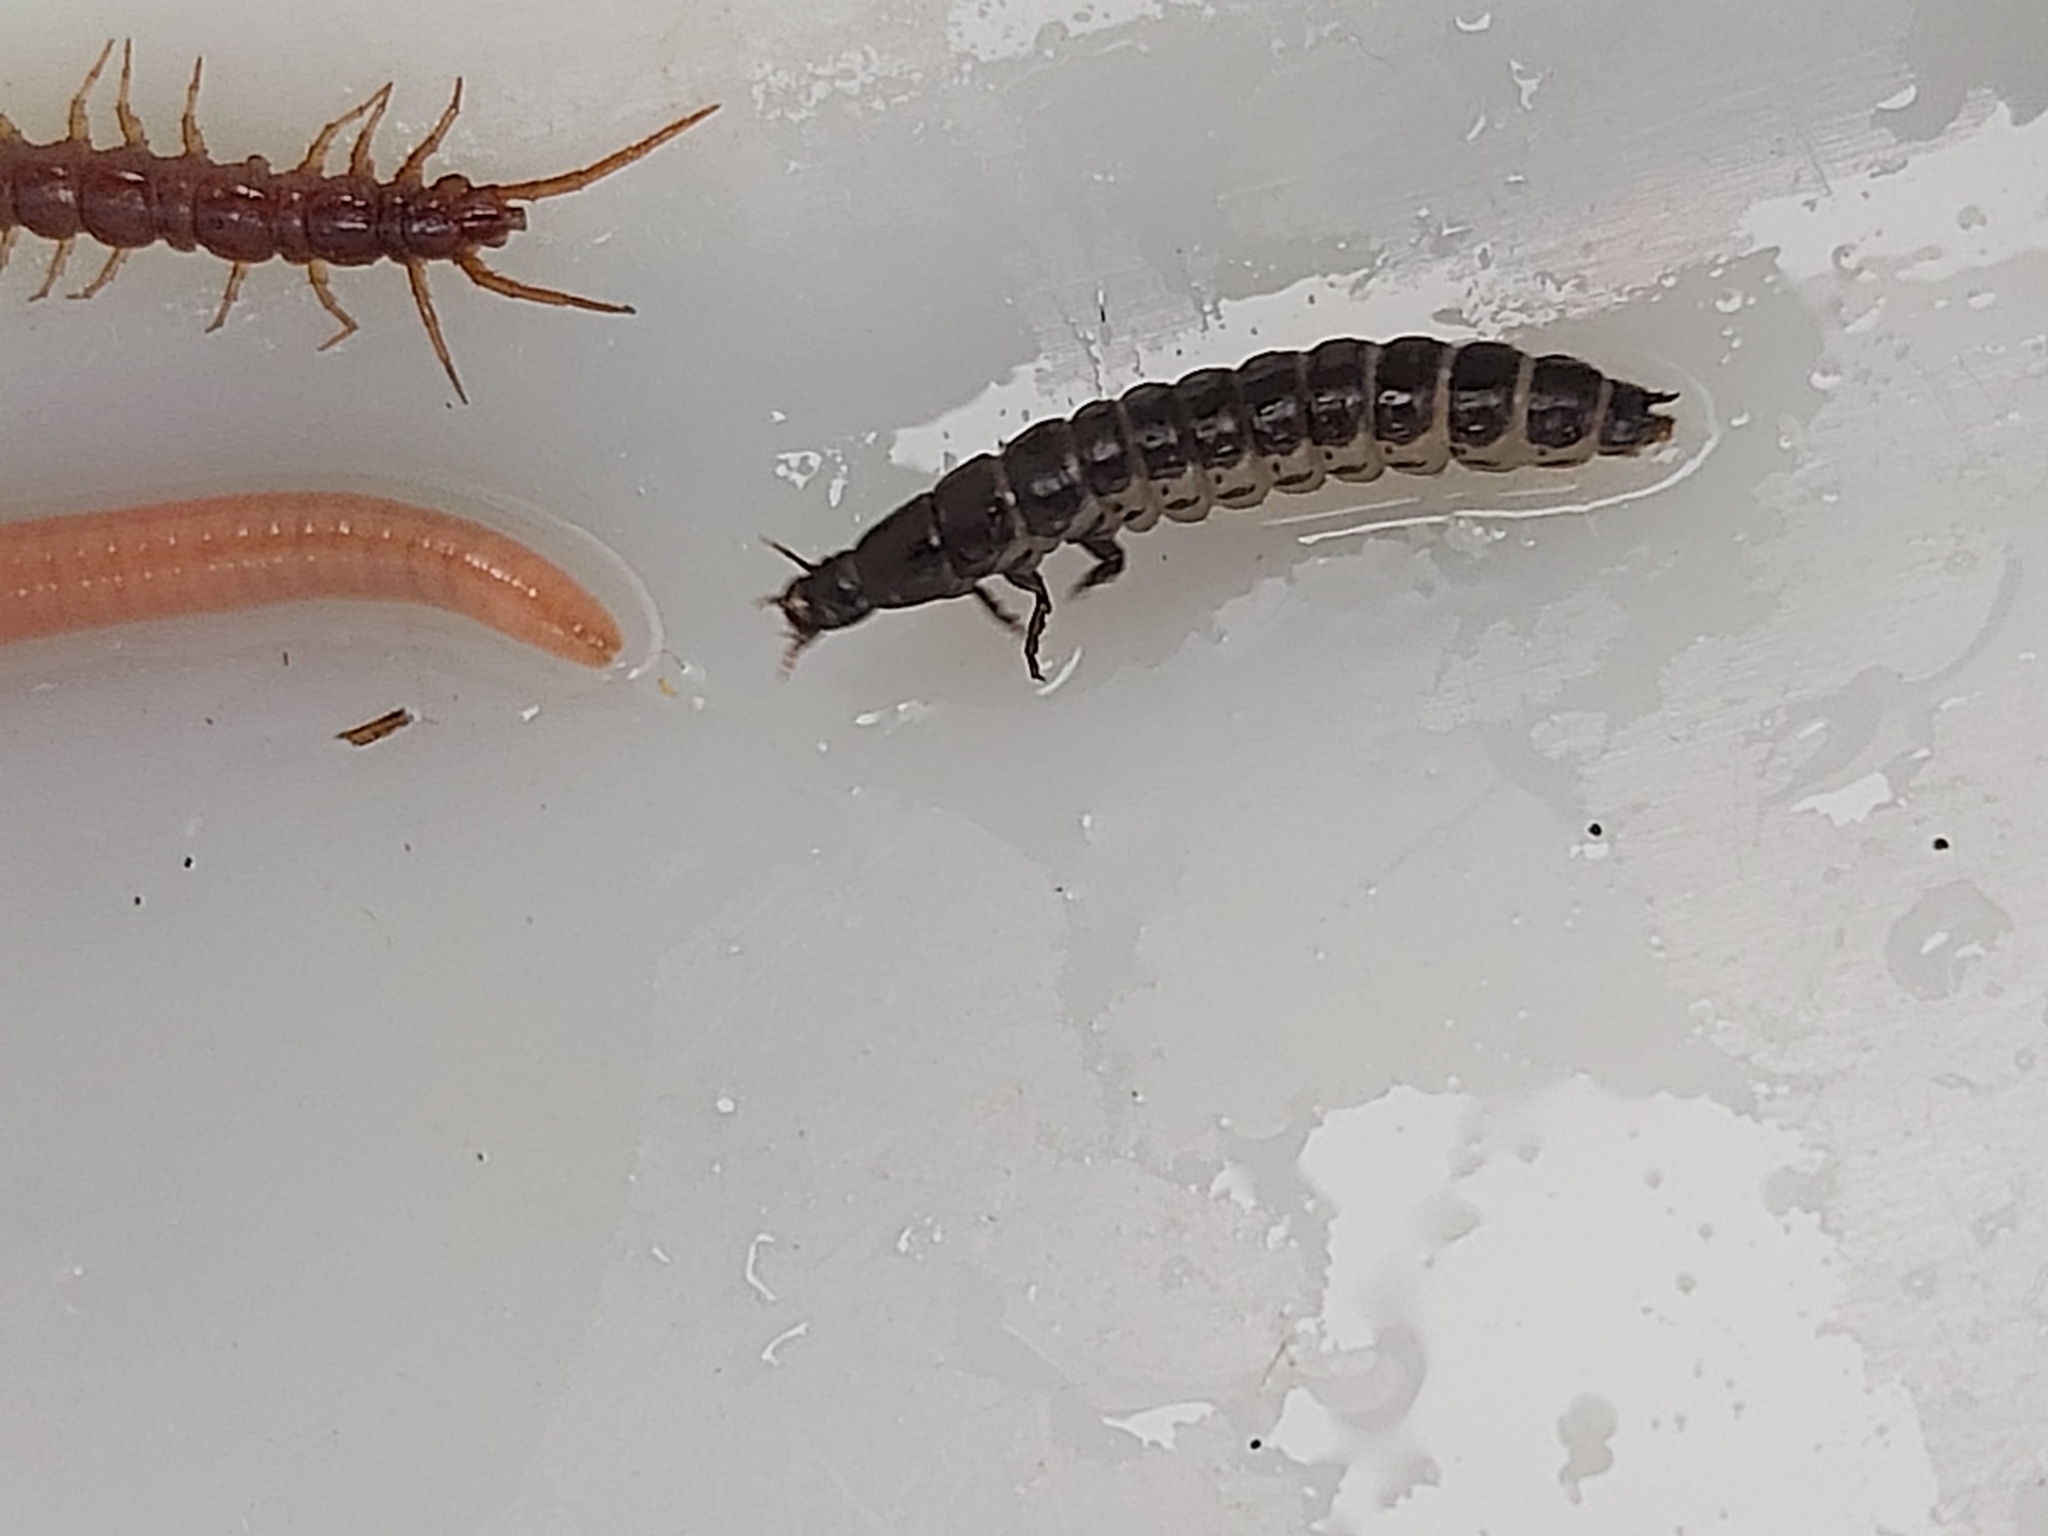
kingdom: Animalia
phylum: Arthropoda
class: Insecta
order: Coleoptera
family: Carabidae
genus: Carabus
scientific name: Carabus
